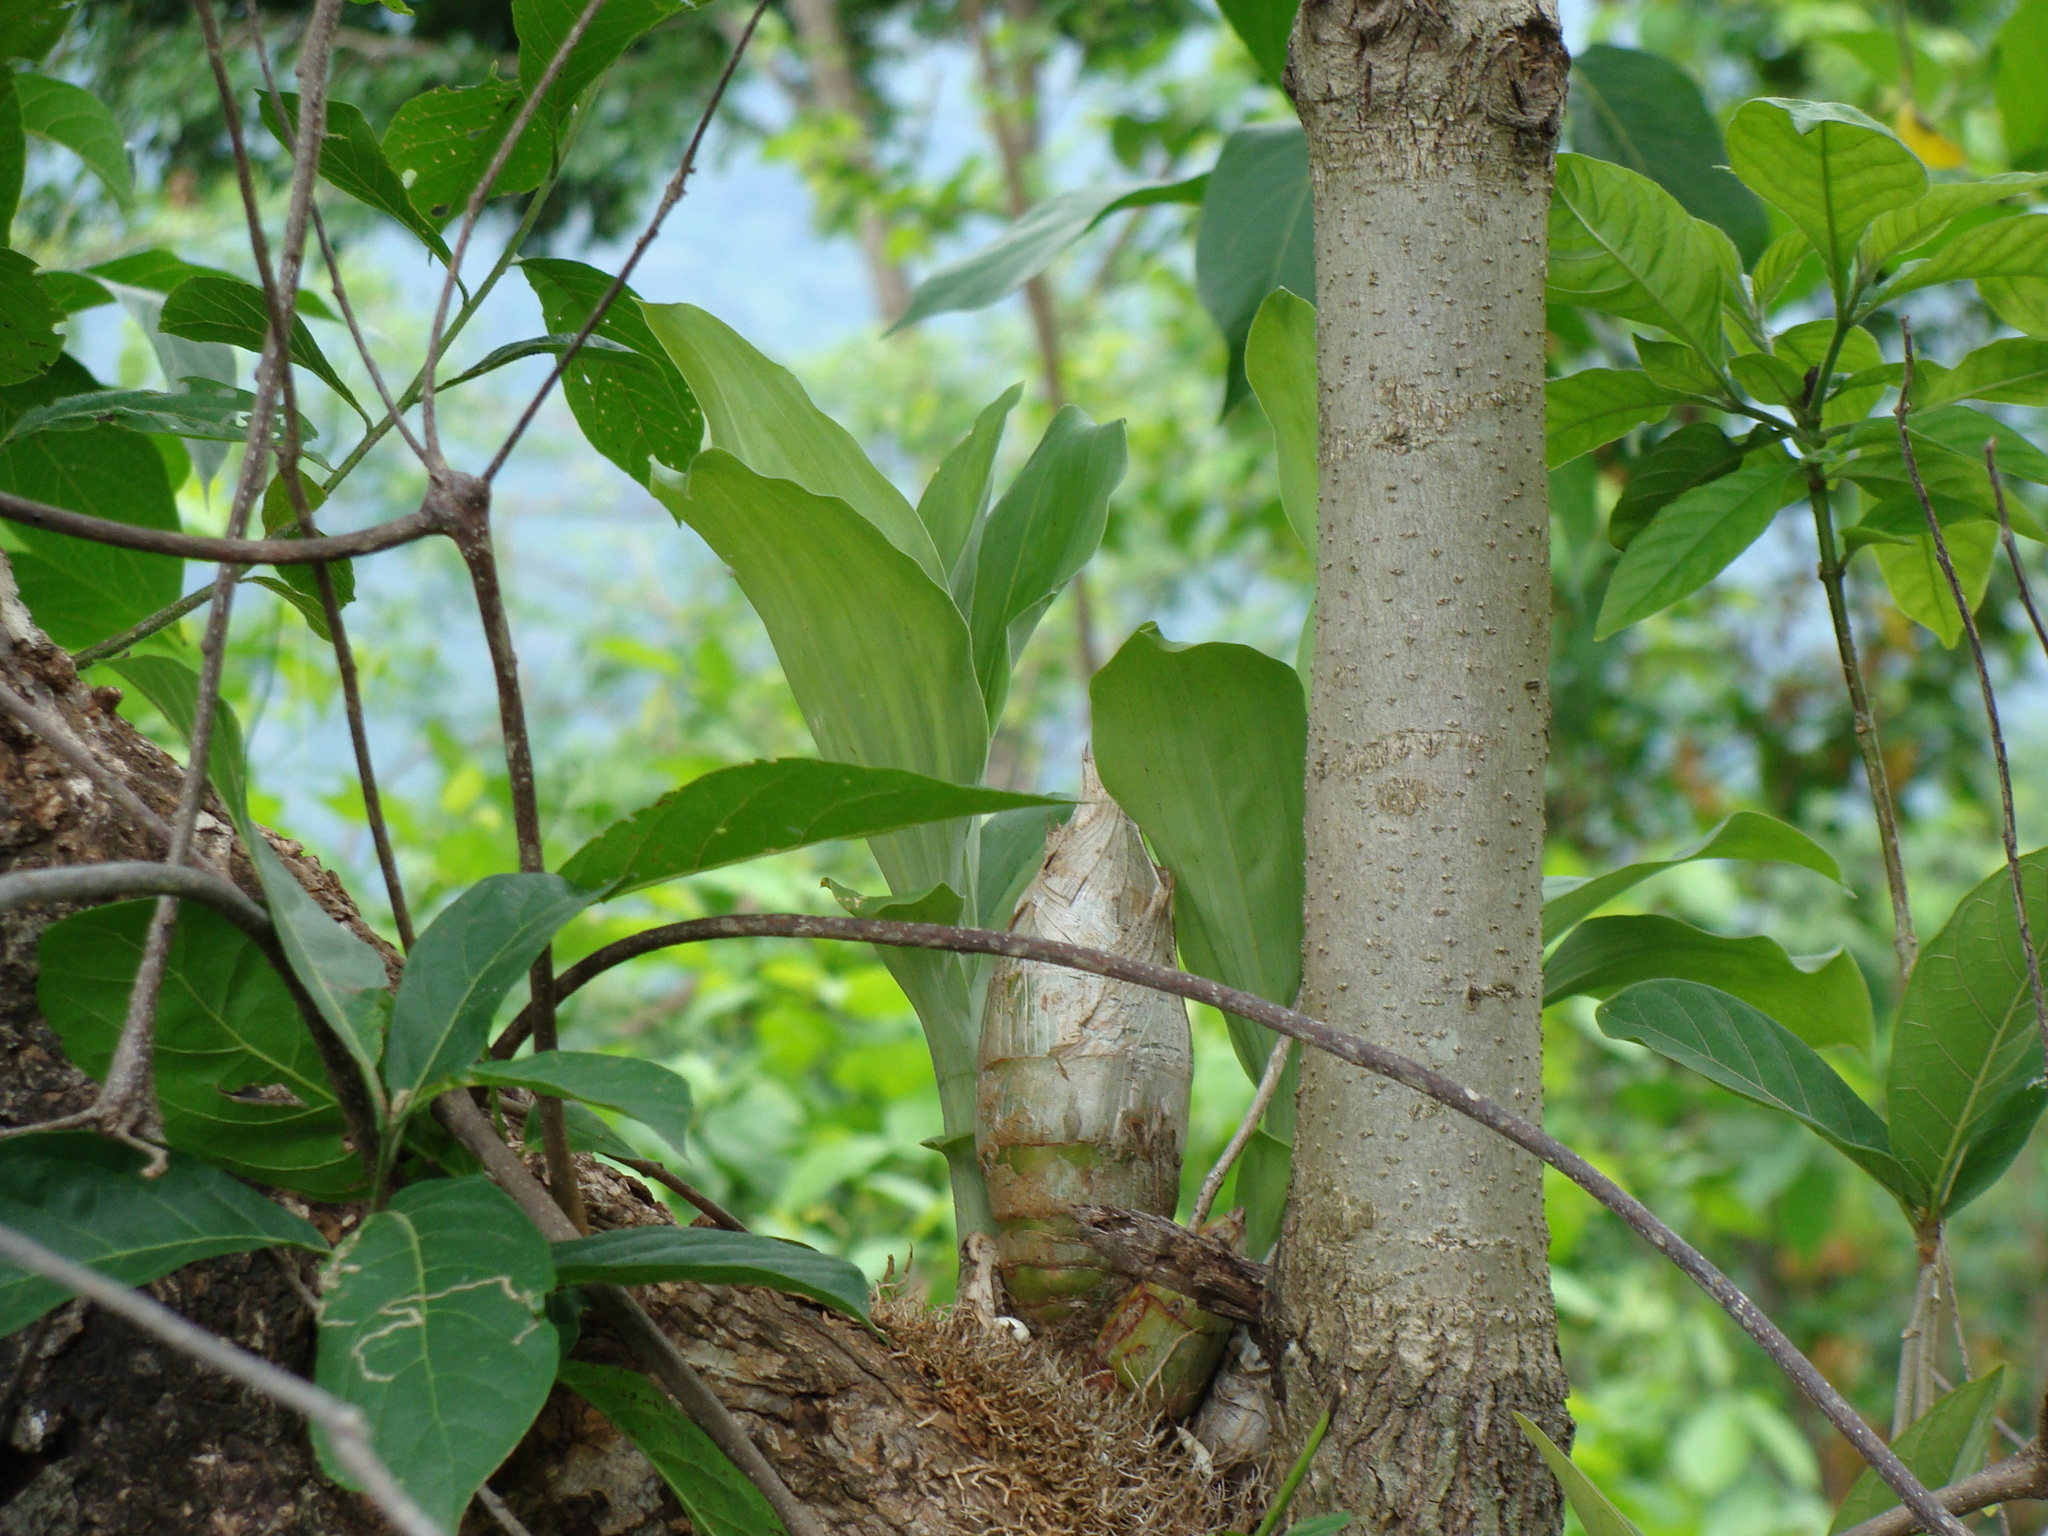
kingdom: Plantae
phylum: Tracheophyta
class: Liliopsida
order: Asparagales
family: Orchidaceae
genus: Catasetum
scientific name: Catasetum integerrimum
